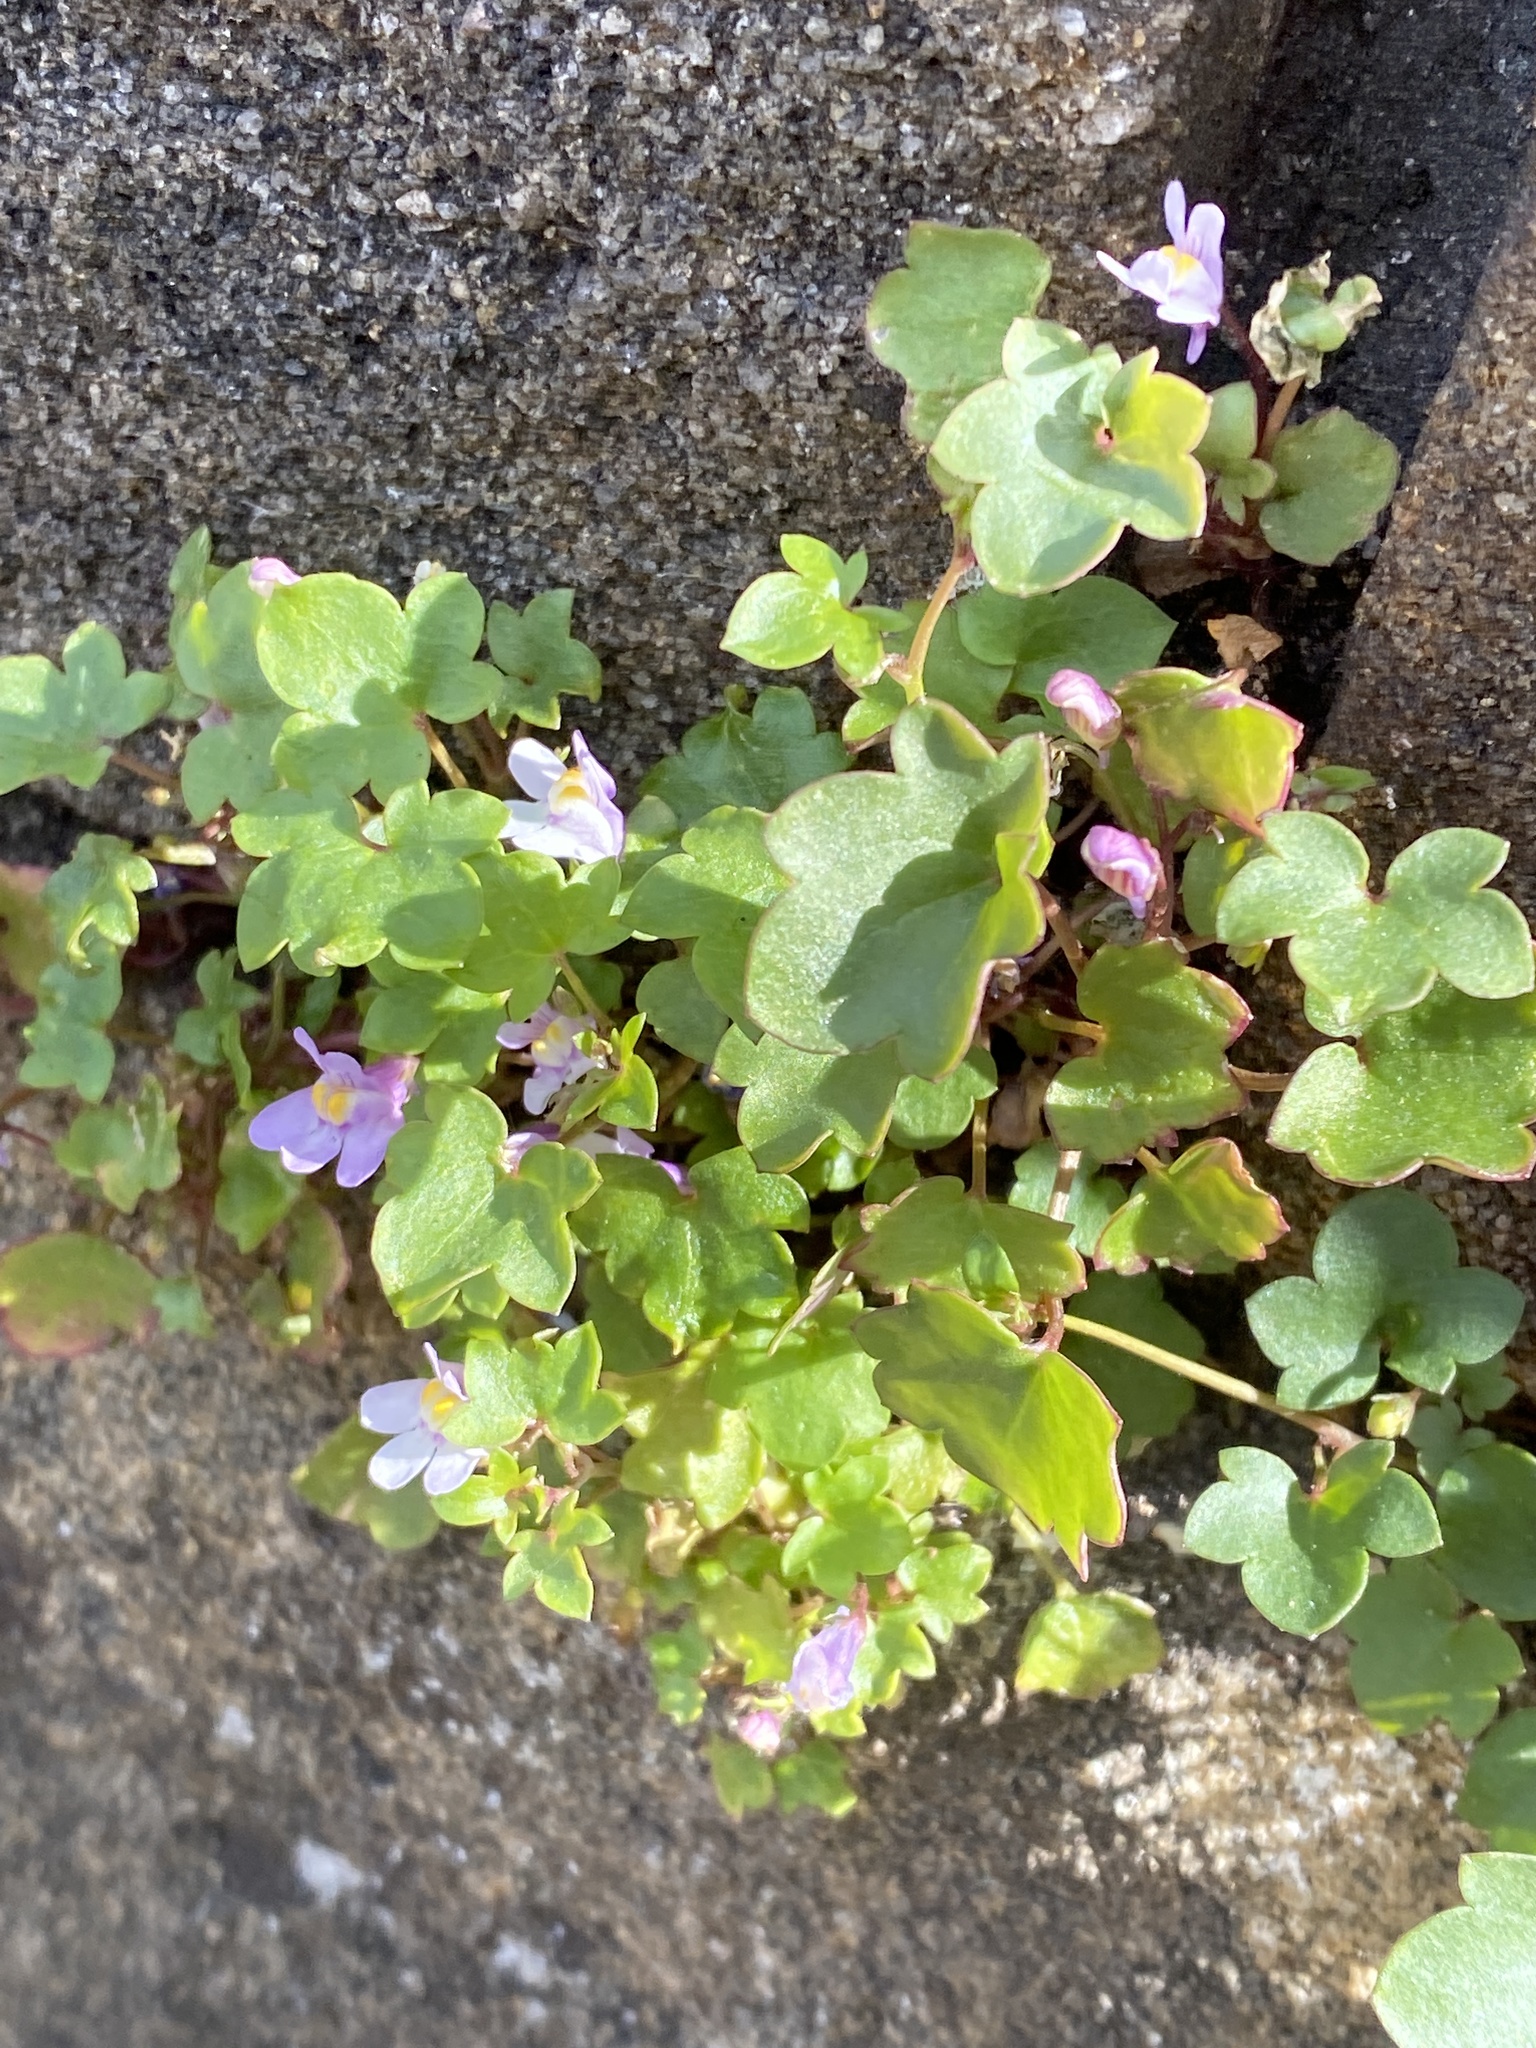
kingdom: Plantae
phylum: Tracheophyta
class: Magnoliopsida
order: Lamiales
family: Plantaginaceae
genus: Cymbalaria
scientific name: Cymbalaria muralis
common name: Ivy-leaved toadflax
